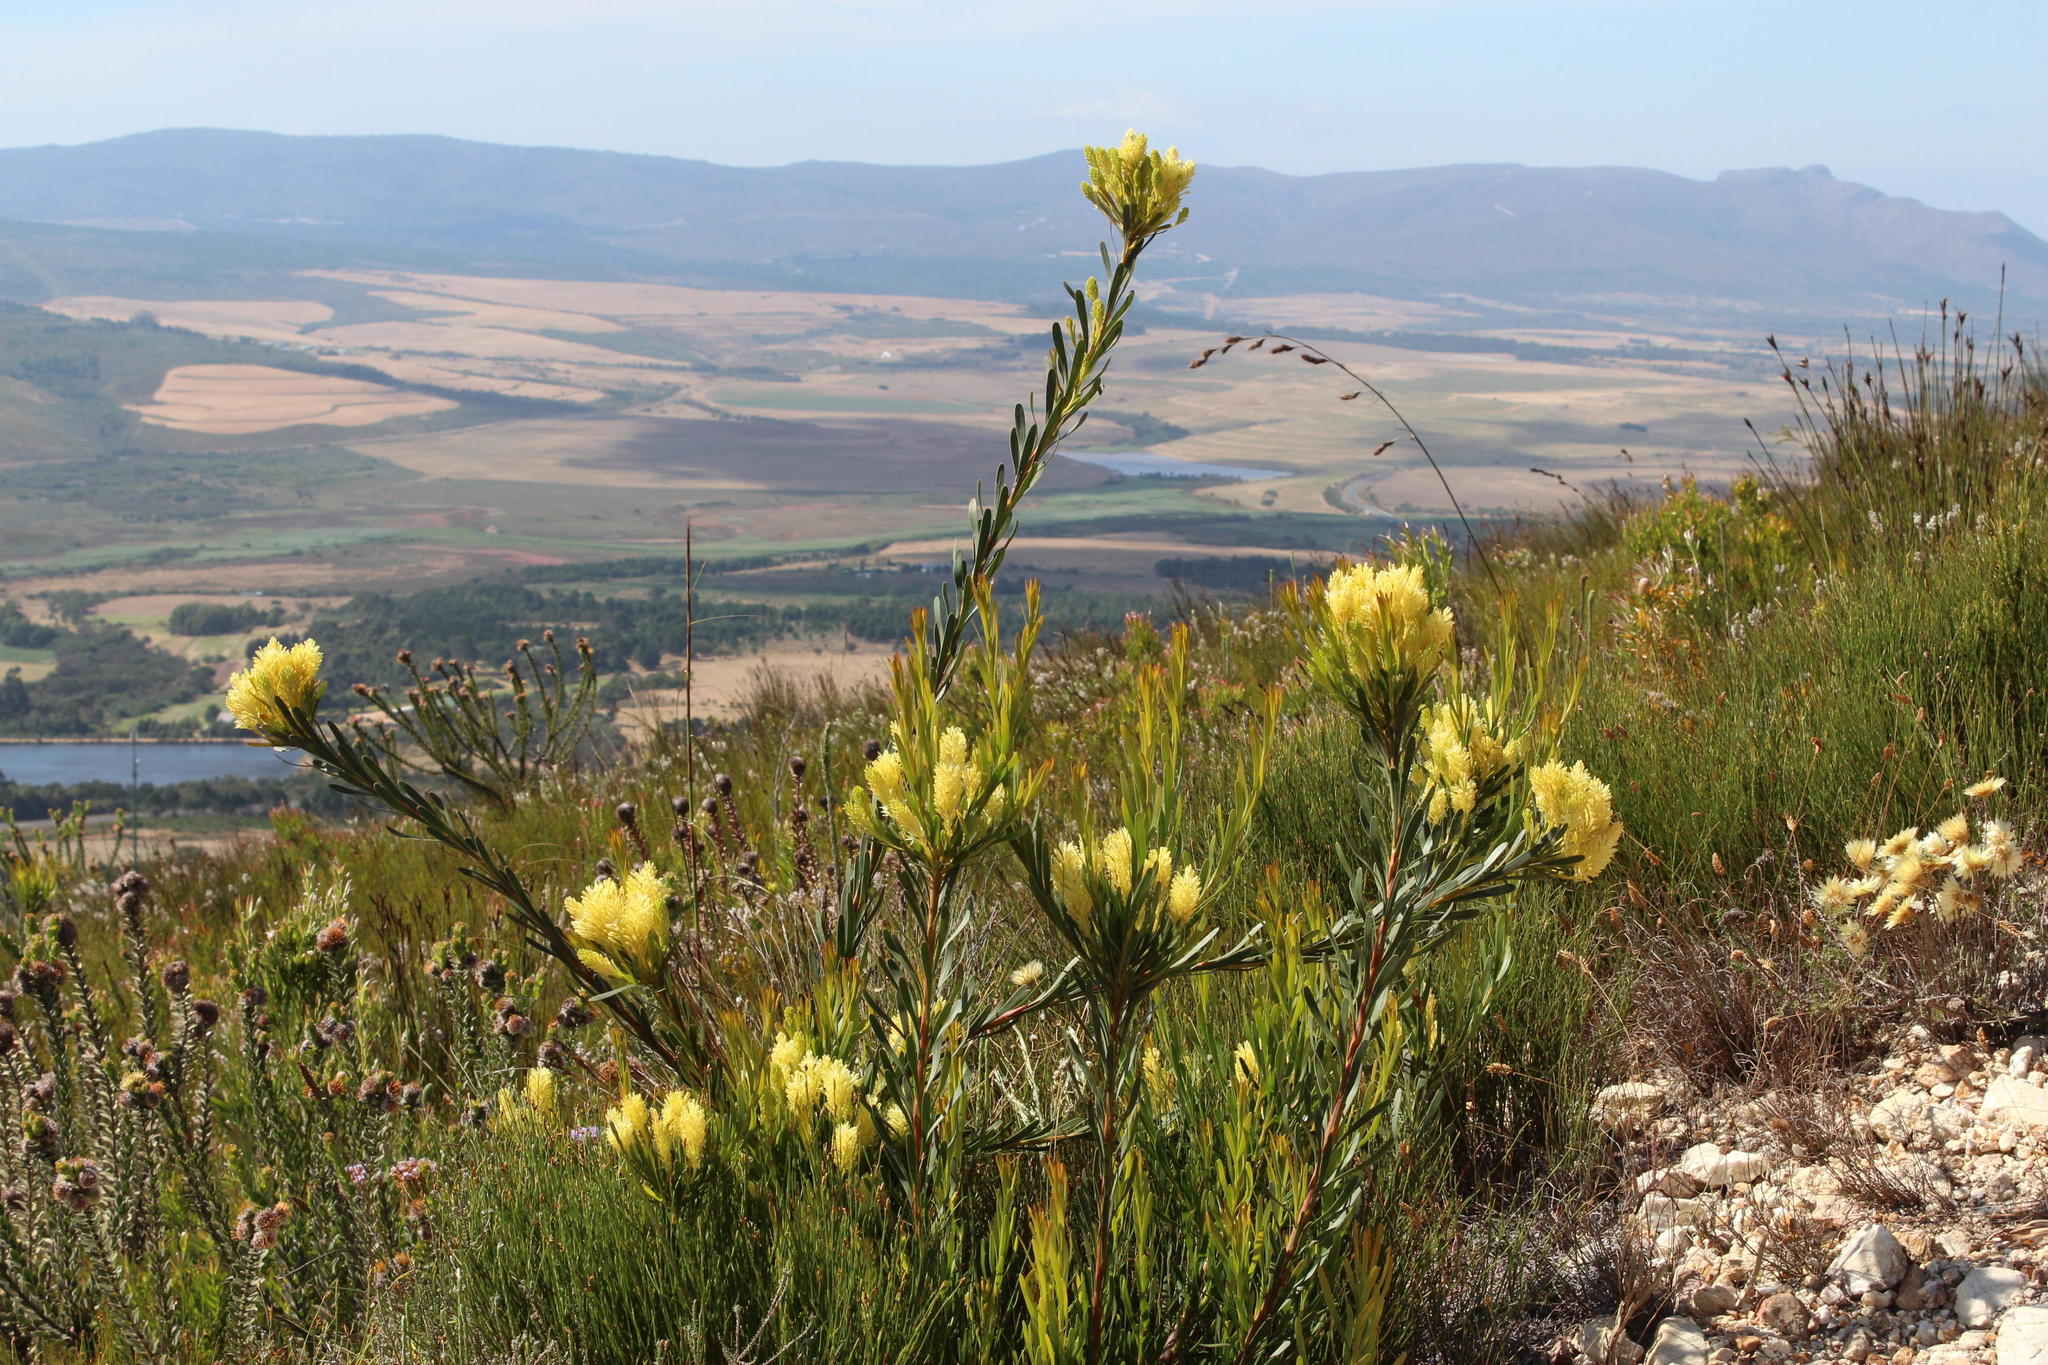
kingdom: Plantae
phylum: Tracheophyta
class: Magnoliopsida
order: Proteales
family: Proteaceae
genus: Aulax
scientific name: Aulax umbellata
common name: Broad-leaf featherbush
